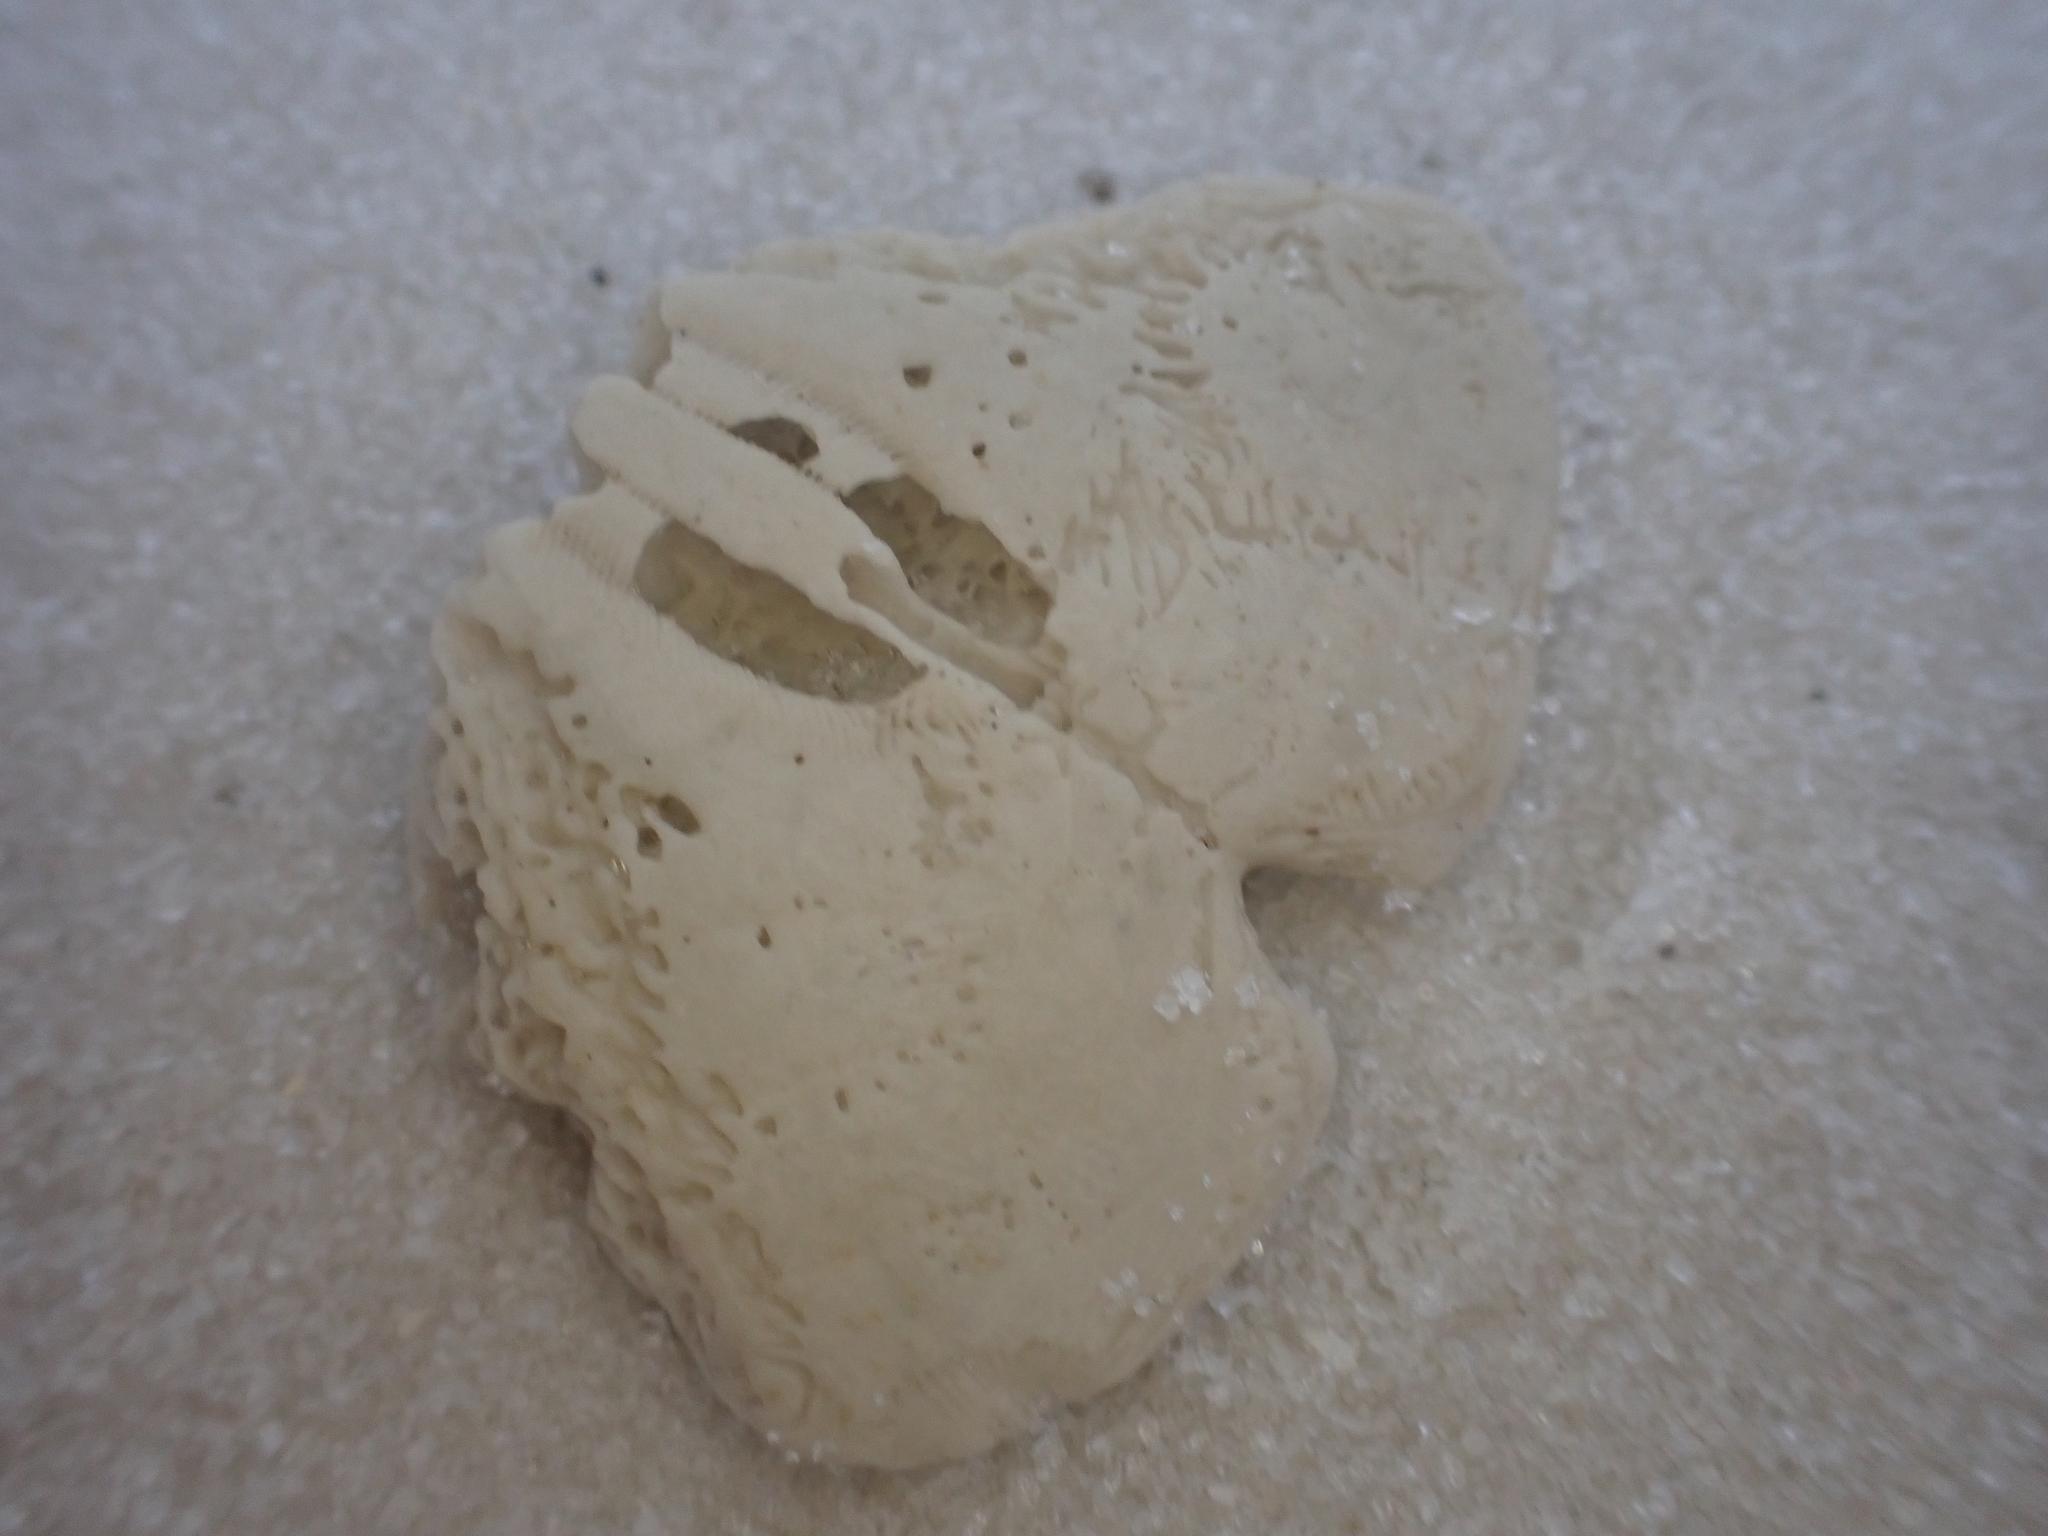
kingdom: Animalia
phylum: Echinodermata
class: Echinoidea
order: Echinolampadacea
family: Mellitidae
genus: Mellita
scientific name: Mellita quinquiesperforata
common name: Sand dollar
